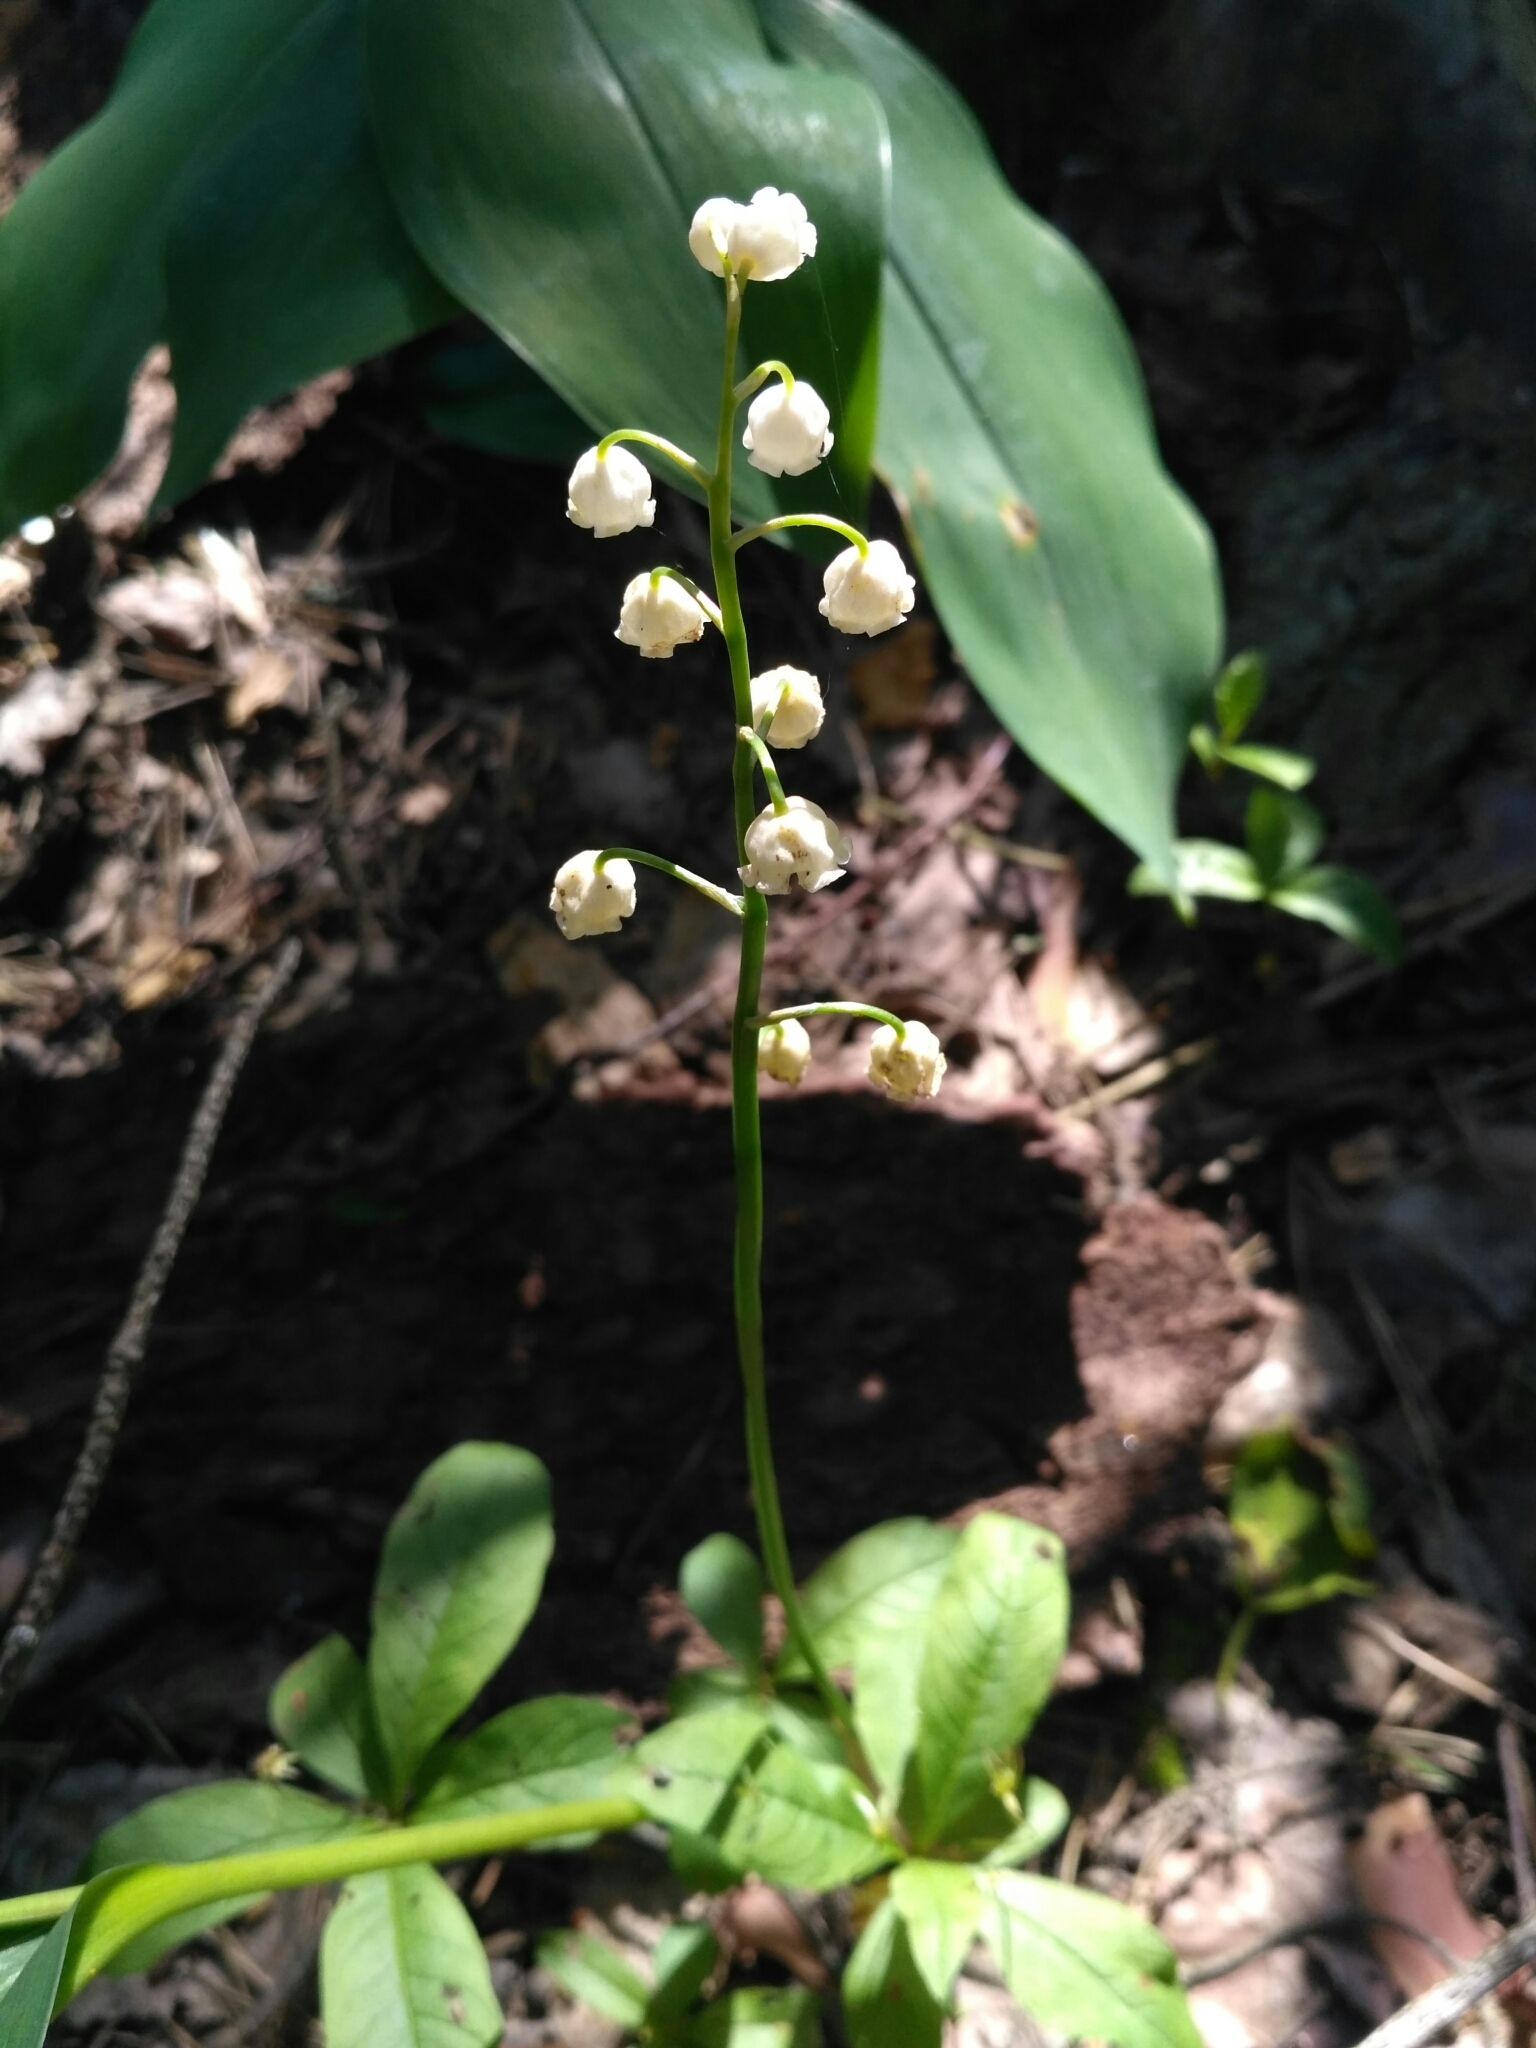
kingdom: Plantae
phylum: Tracheophyta
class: Liliopsida
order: Asparagales
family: Asparagaceae
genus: Convallaria
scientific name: Convallaria majalis
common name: Lily-of-the-valley
